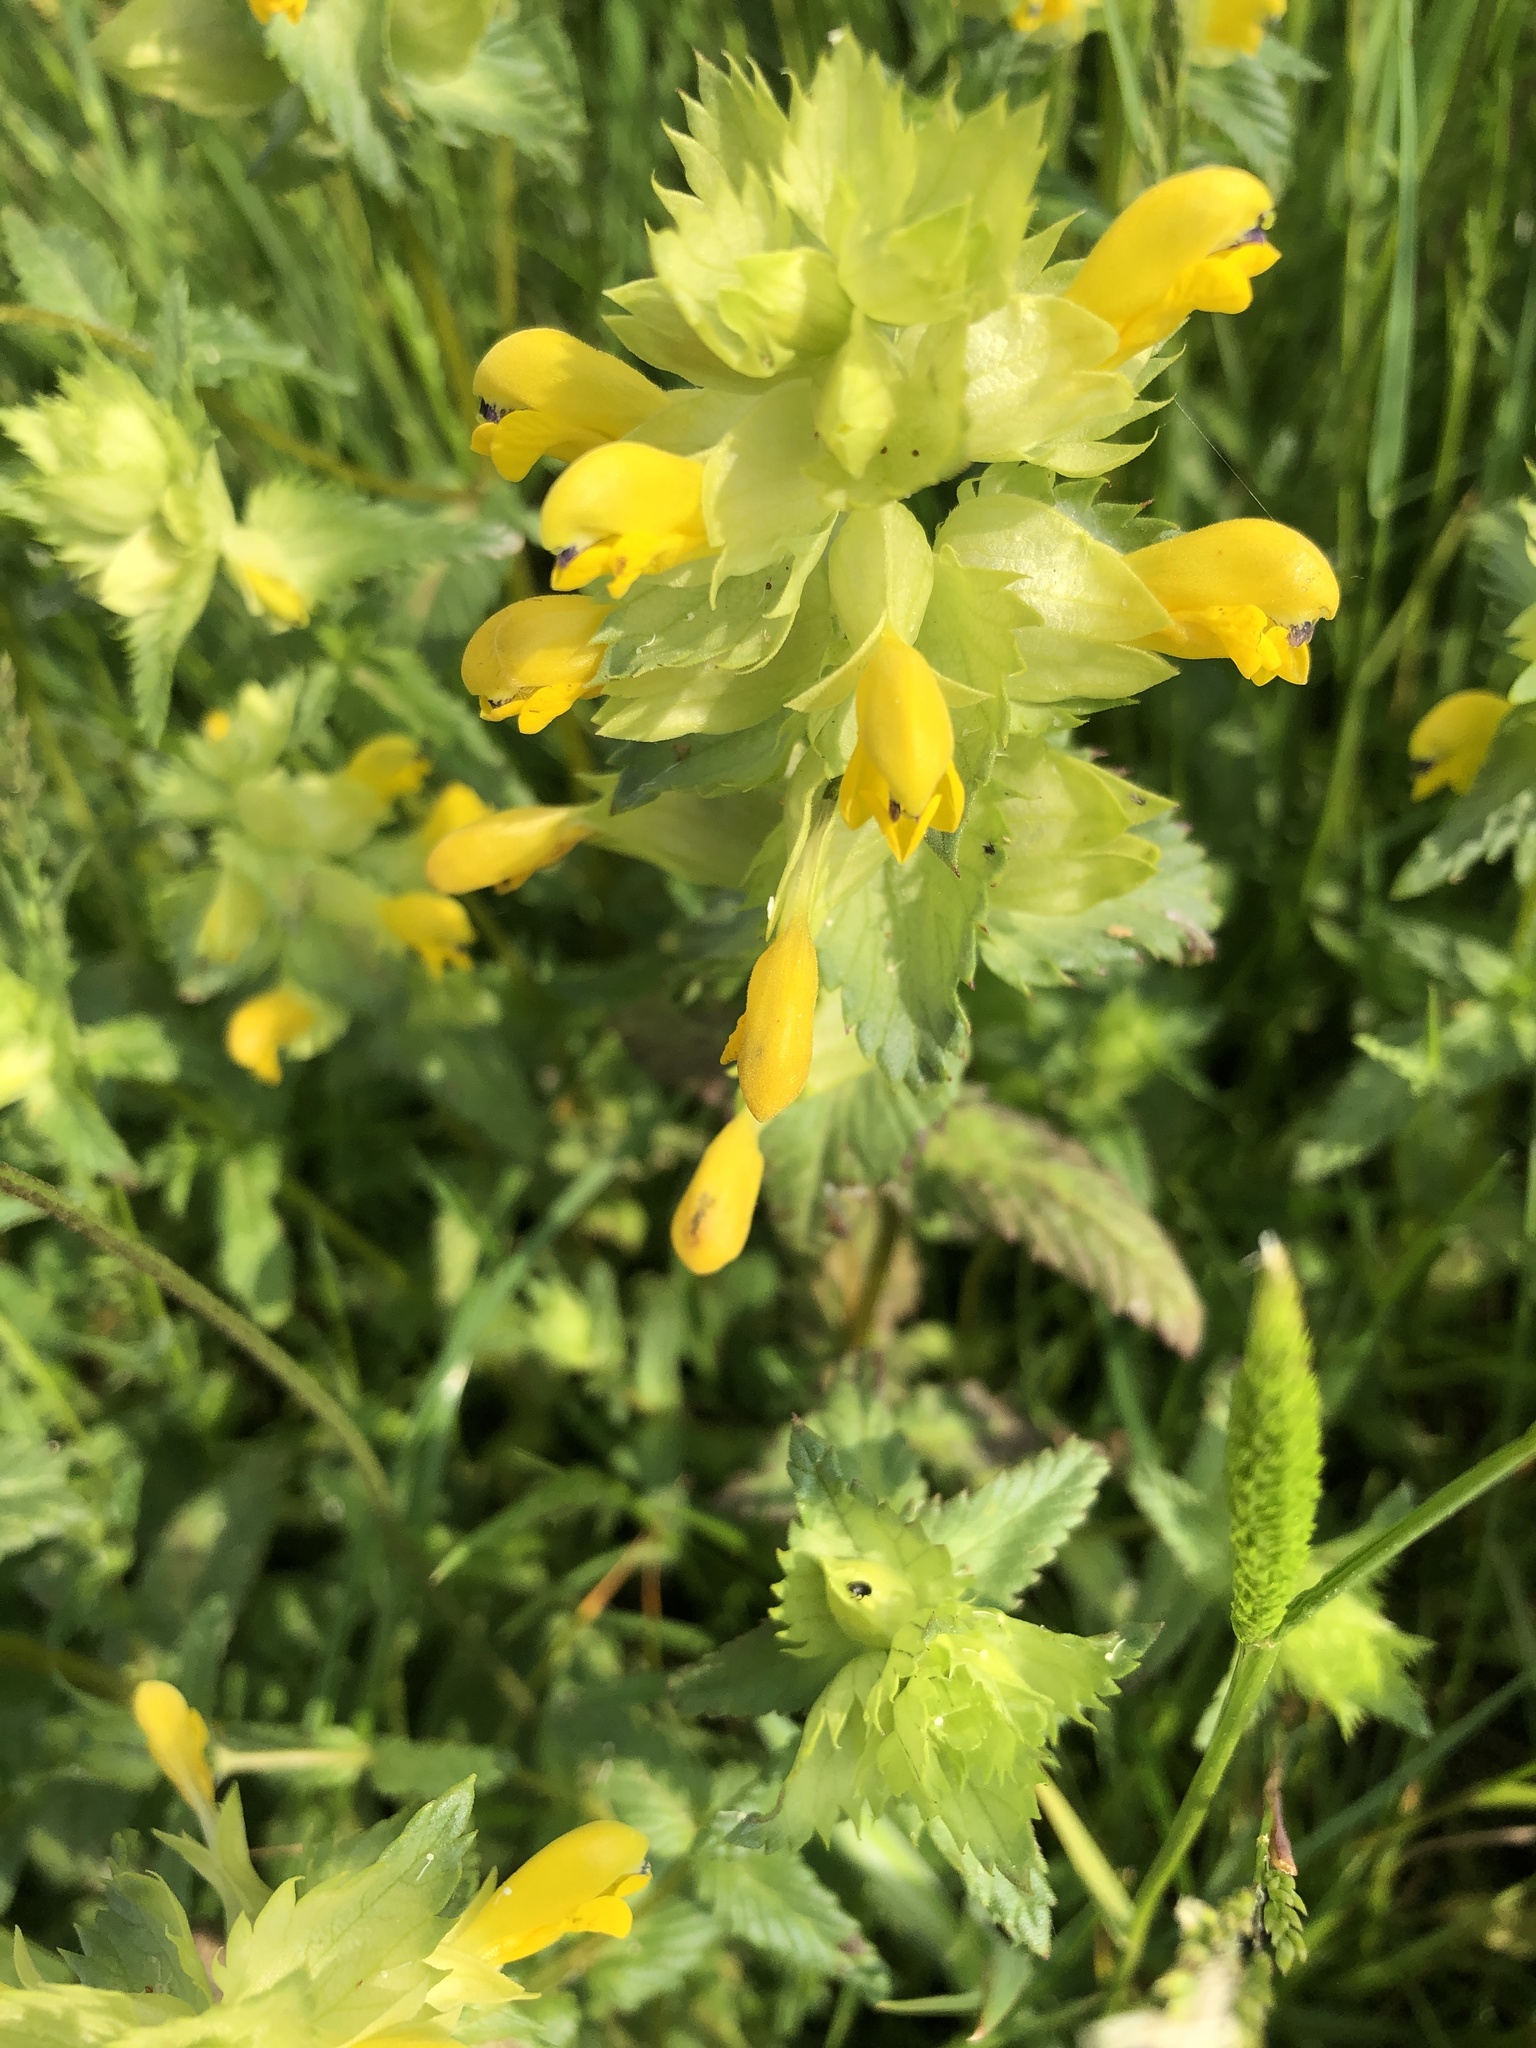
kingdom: Plantae
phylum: Tracheophyta
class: Magnoliopsida
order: Lamiales
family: Orobanchaceae
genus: Rhinanthus
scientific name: Rhinanthus serotinus
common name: Late-flowering yellow rattle
